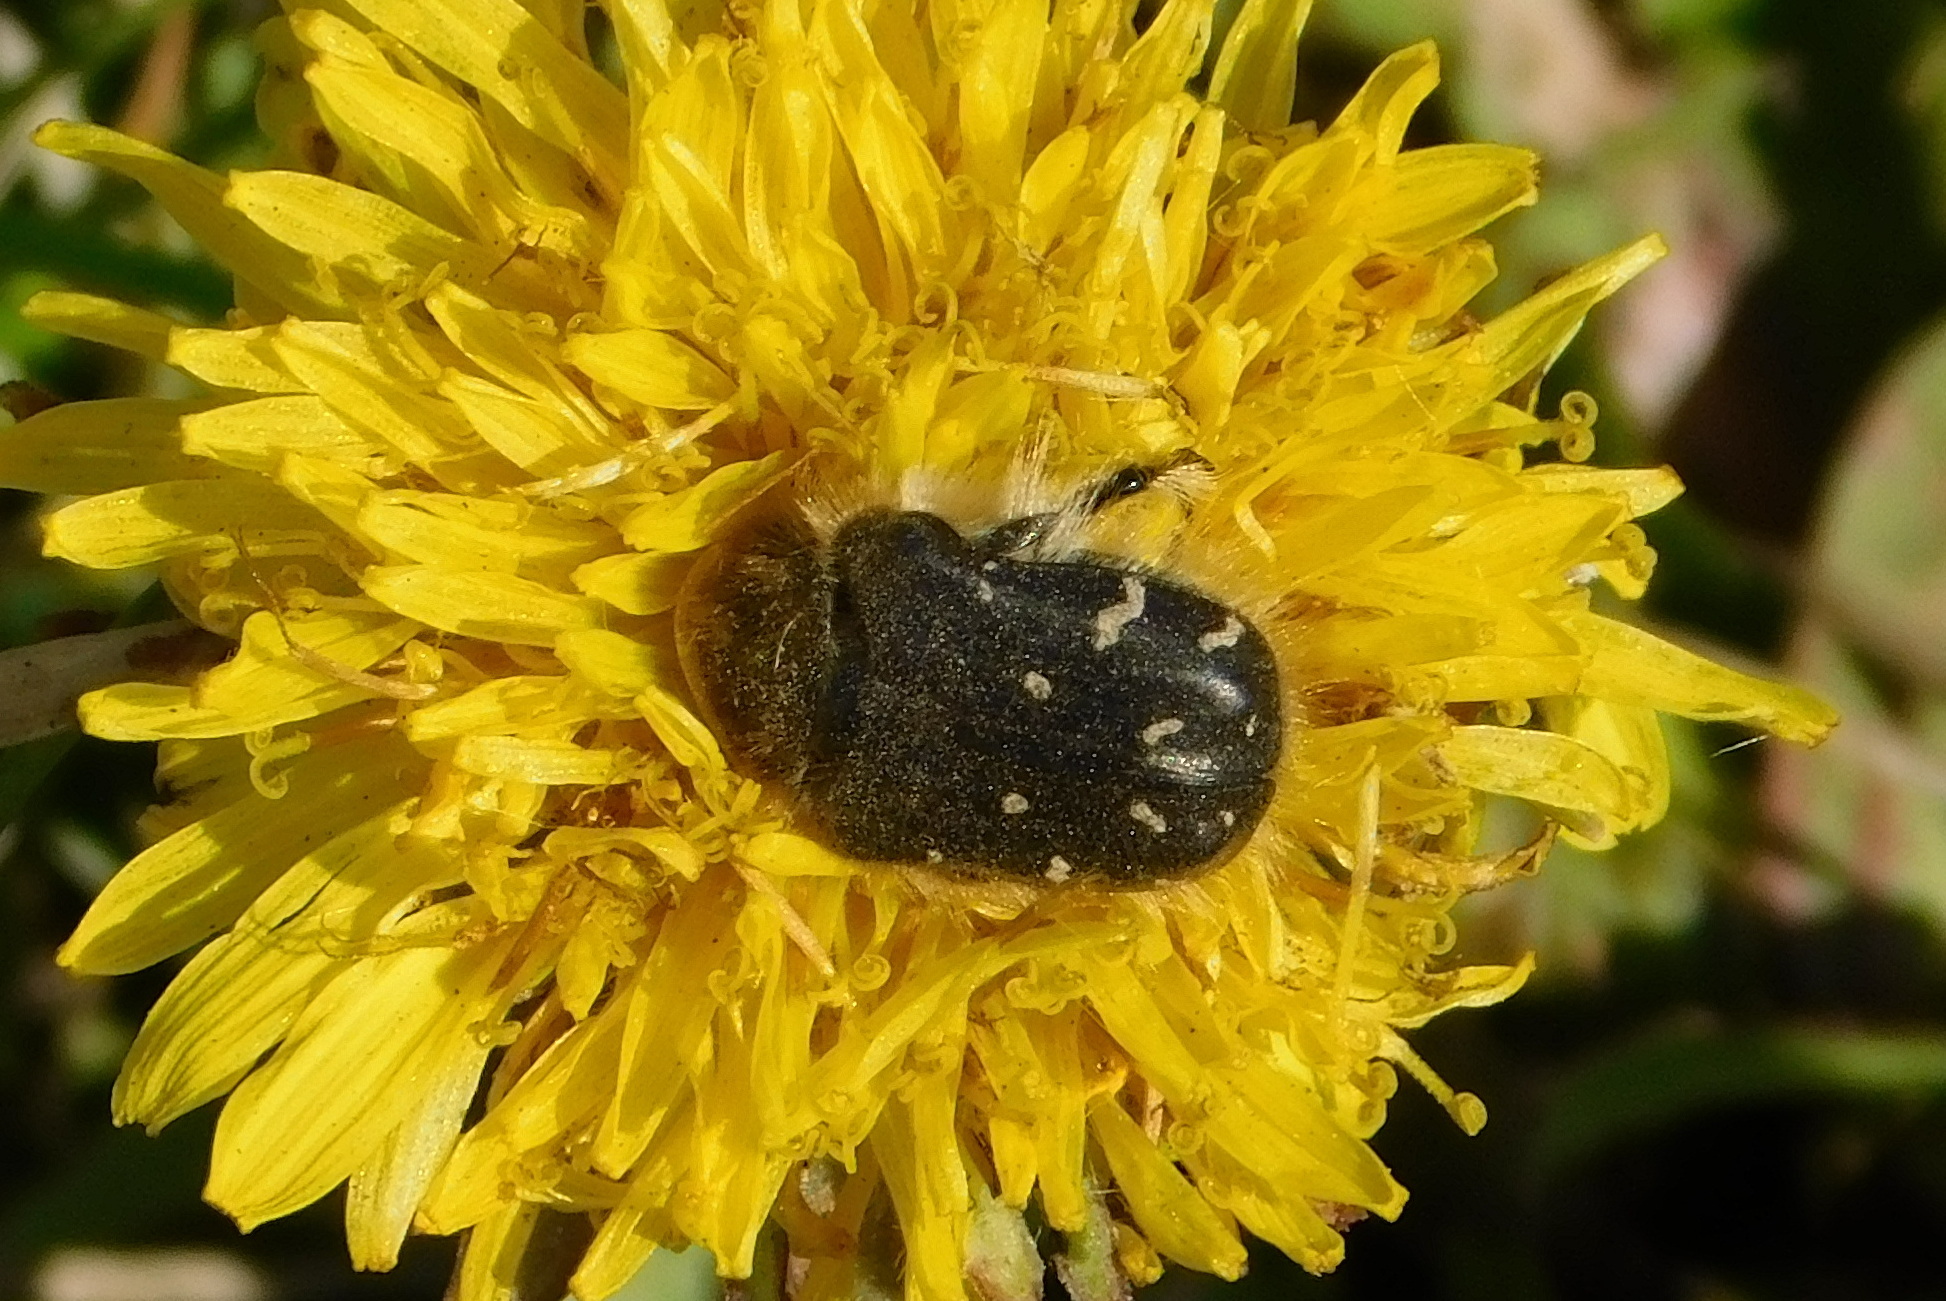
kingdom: Animalia
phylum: Arthropoda
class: Insecta
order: Coleoptera
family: Scarabaeidae
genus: Tropinota
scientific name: Tropinota hirta
